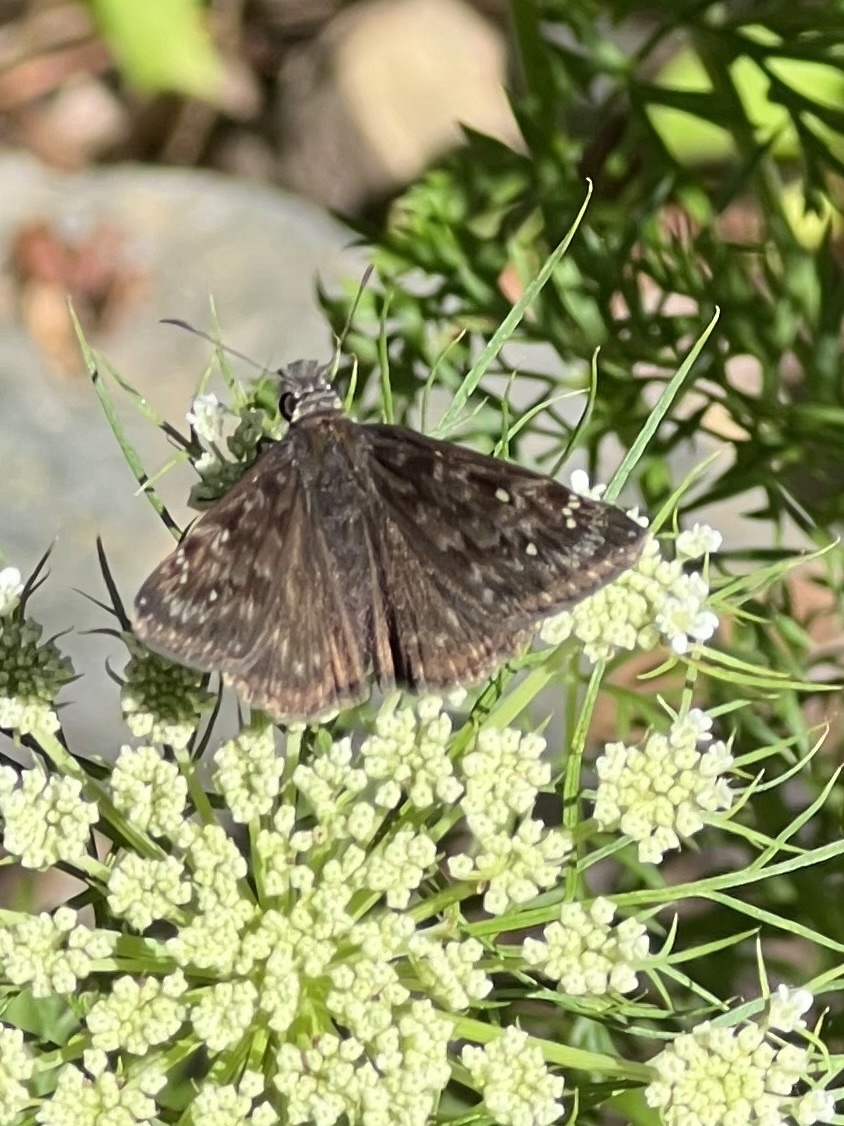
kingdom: Animalia
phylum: Arthropoda
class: Insecta
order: Lepidoptera
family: Hesperiidae
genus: Erynnis
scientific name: Erynnis horatius
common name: Horace's duskywing
